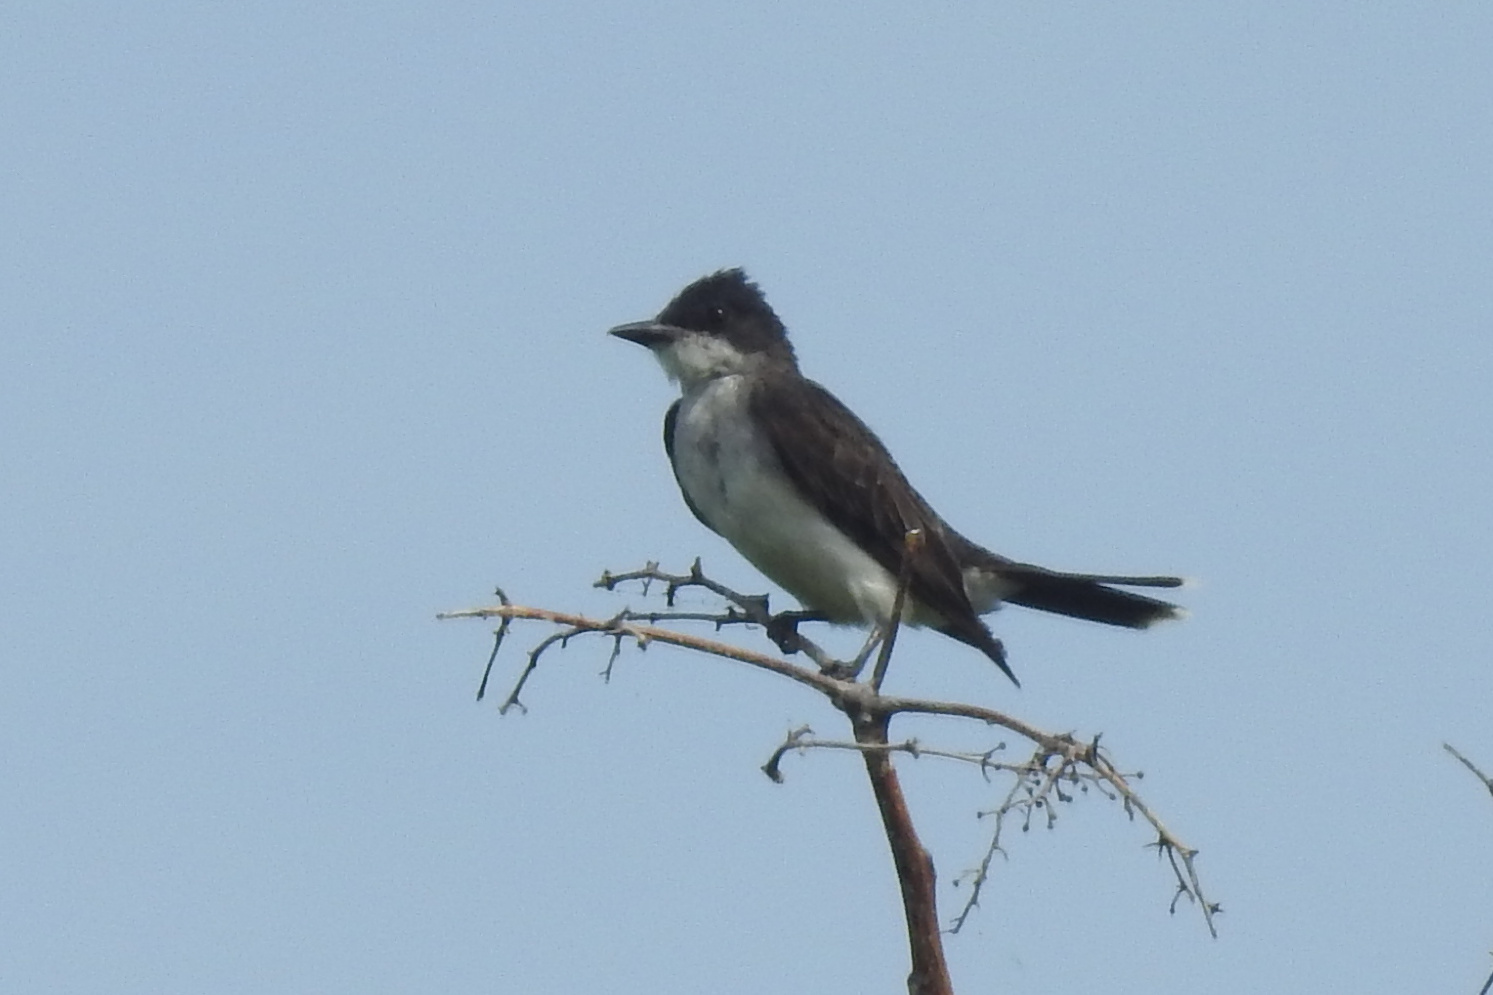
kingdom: Animalia
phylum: Chordata
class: Aves
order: Passeriformes
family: Tyrannidae
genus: Tyrannus
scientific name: Tyrannus tyrannus
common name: Eastern kingbird
